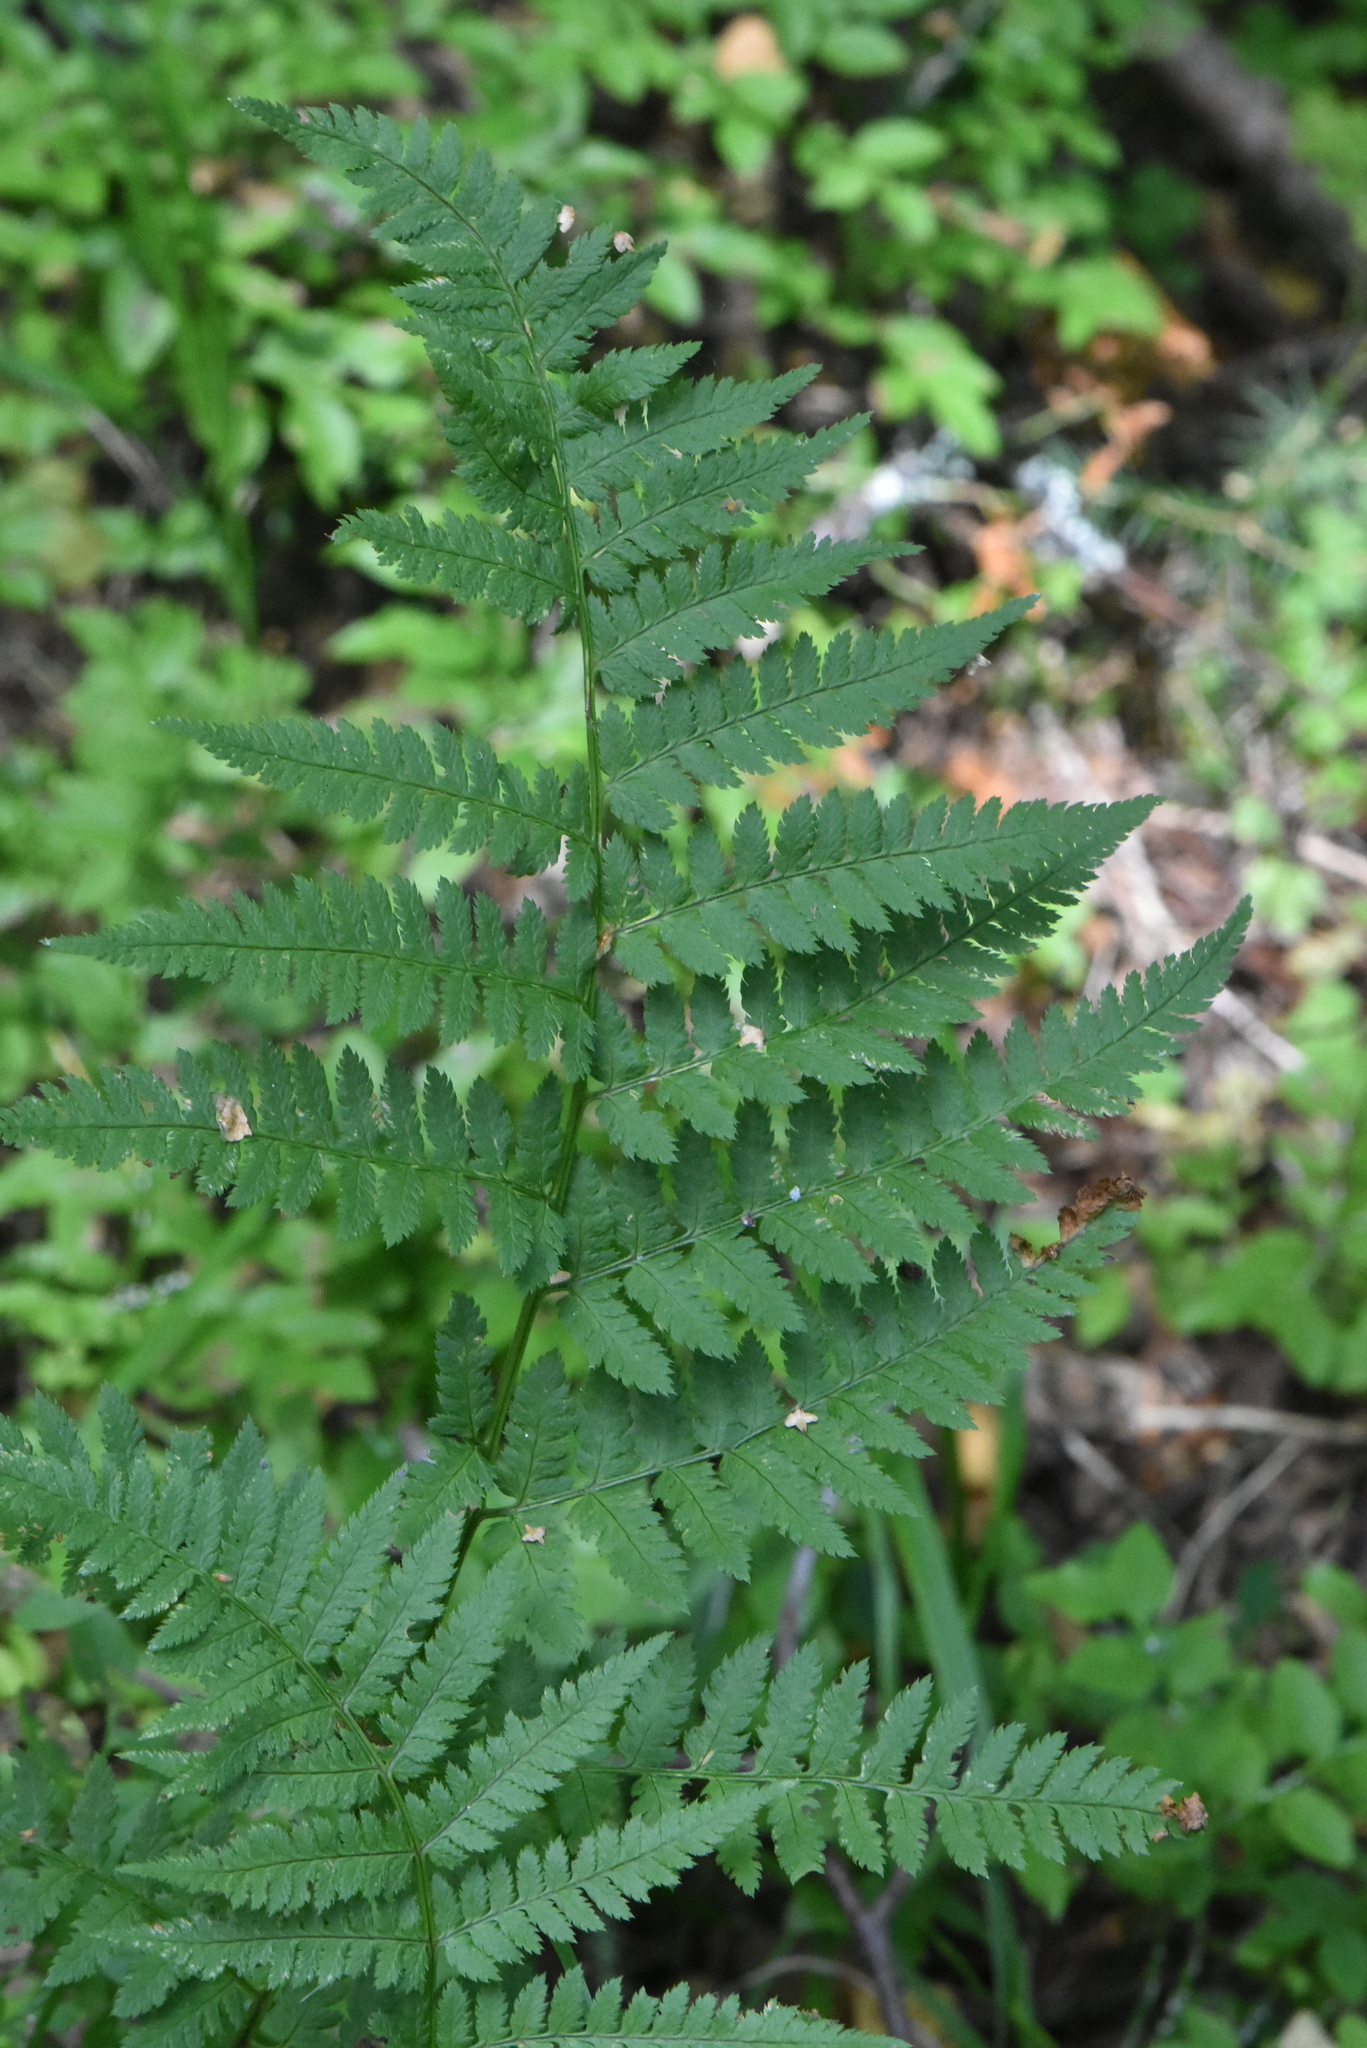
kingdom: Plantae
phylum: Tracheophyta
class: Polypodiopsida
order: Polypodiales
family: Dryopteridaceae
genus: Dryopteris
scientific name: Dryopteris carthusiana
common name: Narrow buckler-fern
